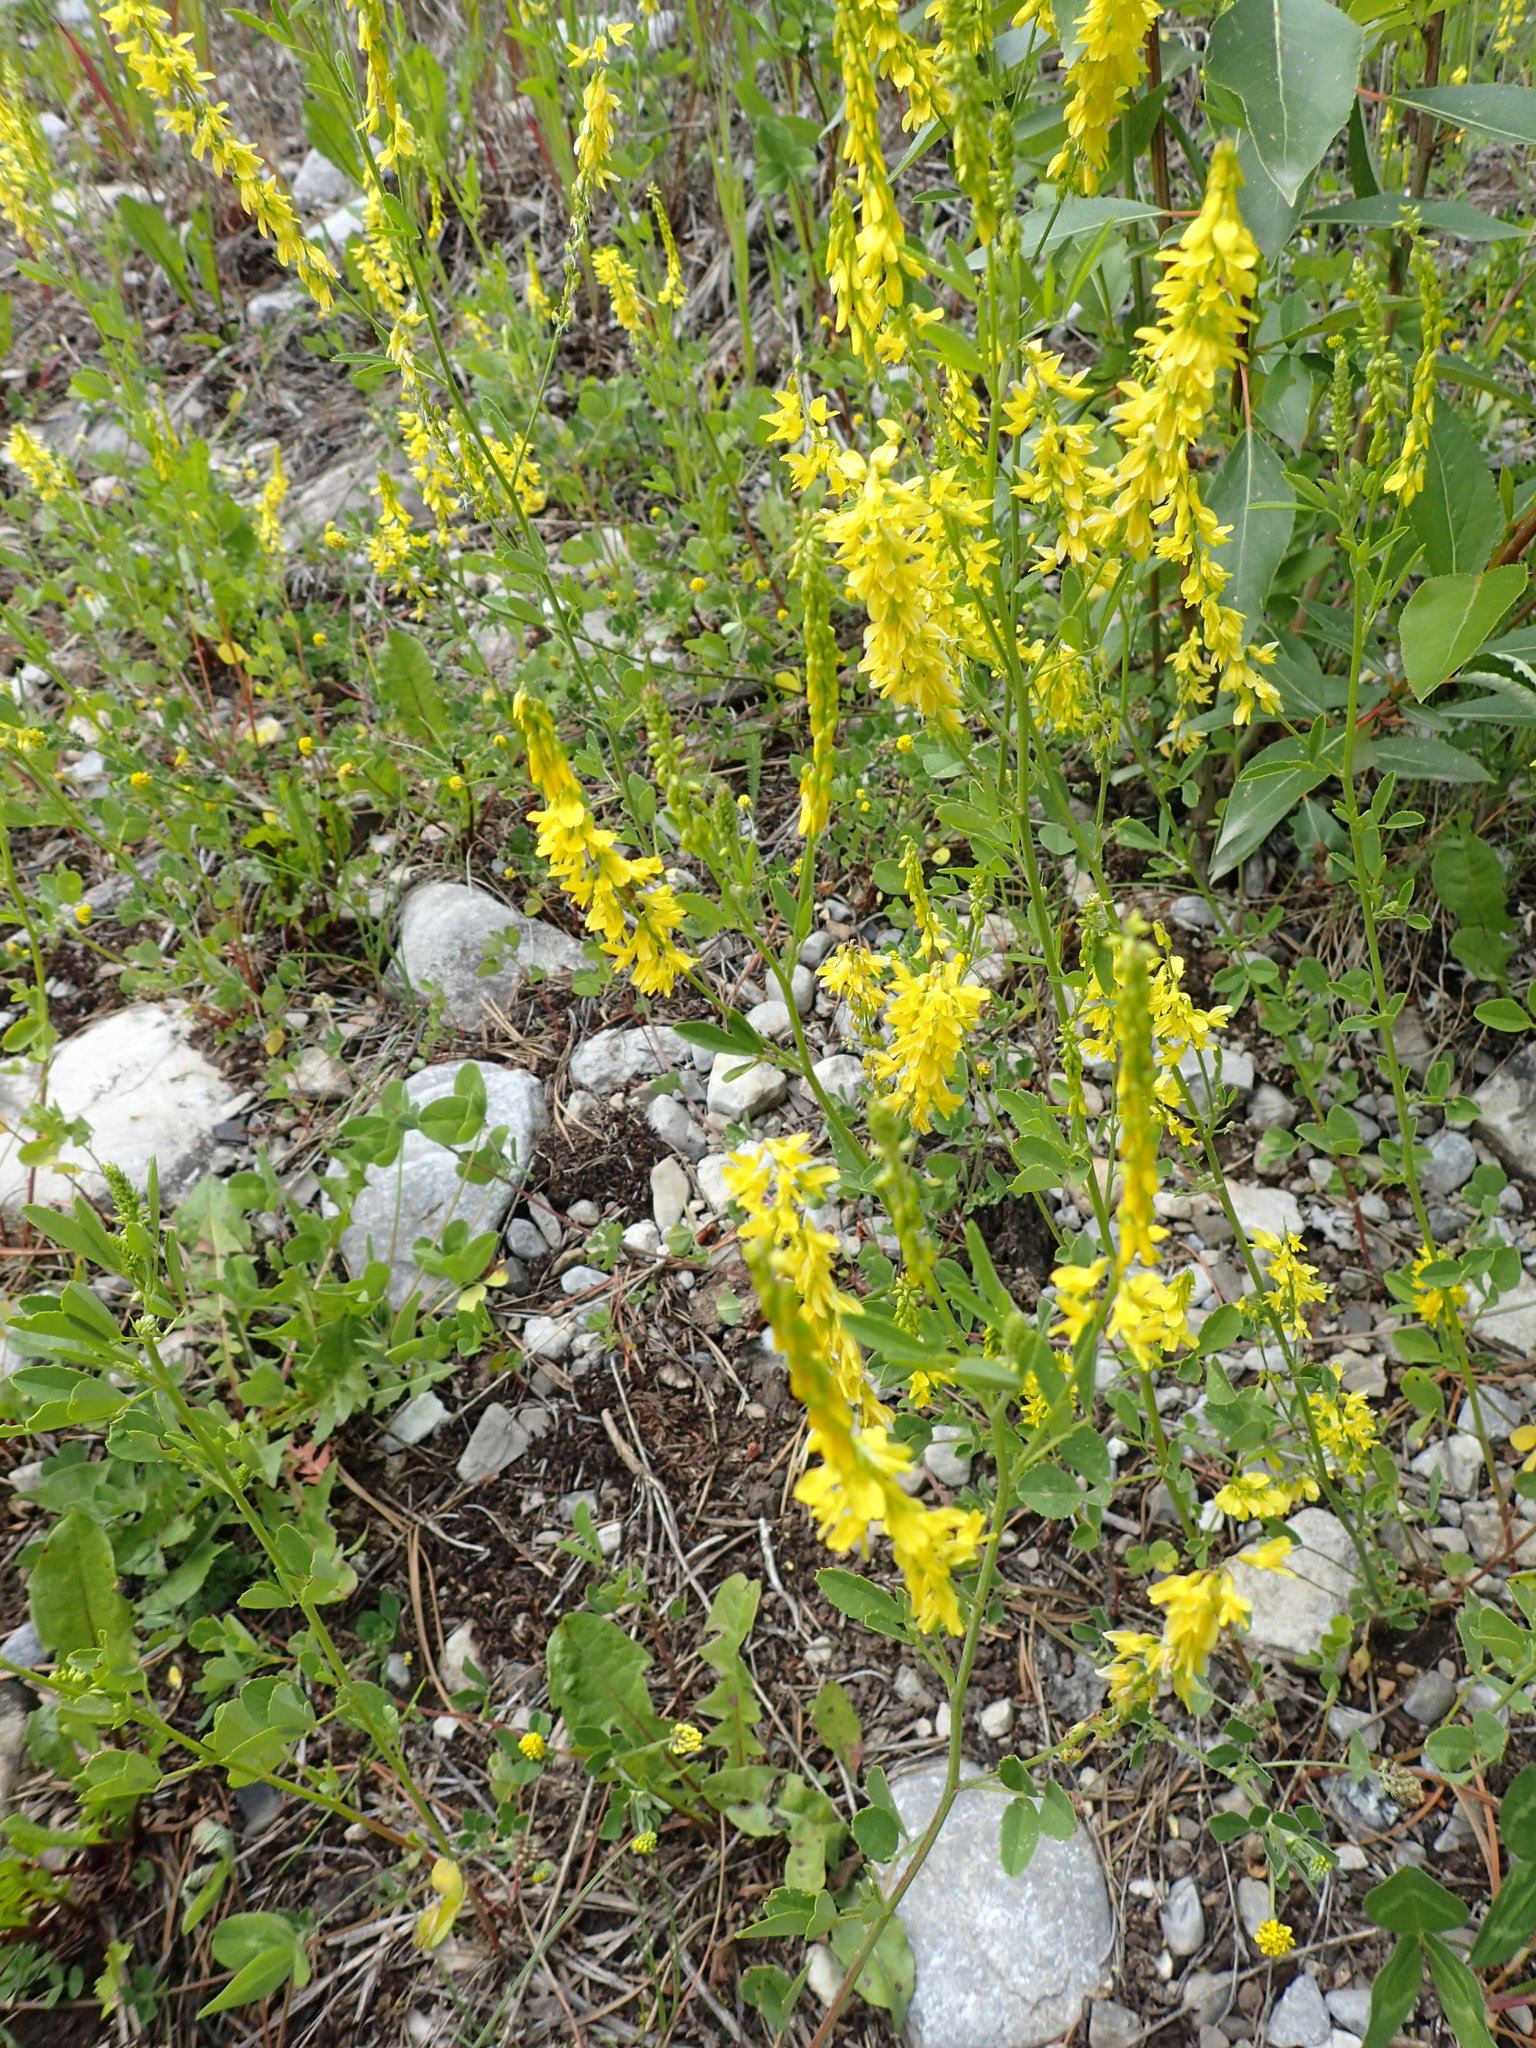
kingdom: Plantae
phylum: Tracheophyta
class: Magnoliopsida
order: Fabales
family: Fabaceae
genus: Melilotus
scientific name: Melilotus officinalis
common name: Sweetclover
